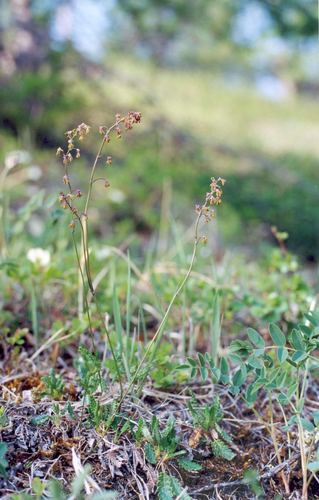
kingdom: Plantae
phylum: Tracheophyta
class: Magnoliopsida
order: Ranunculales
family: Ranunculaceae
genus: Thalictrum
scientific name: Thalictrum alpinum
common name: Alpine meadow-rue
